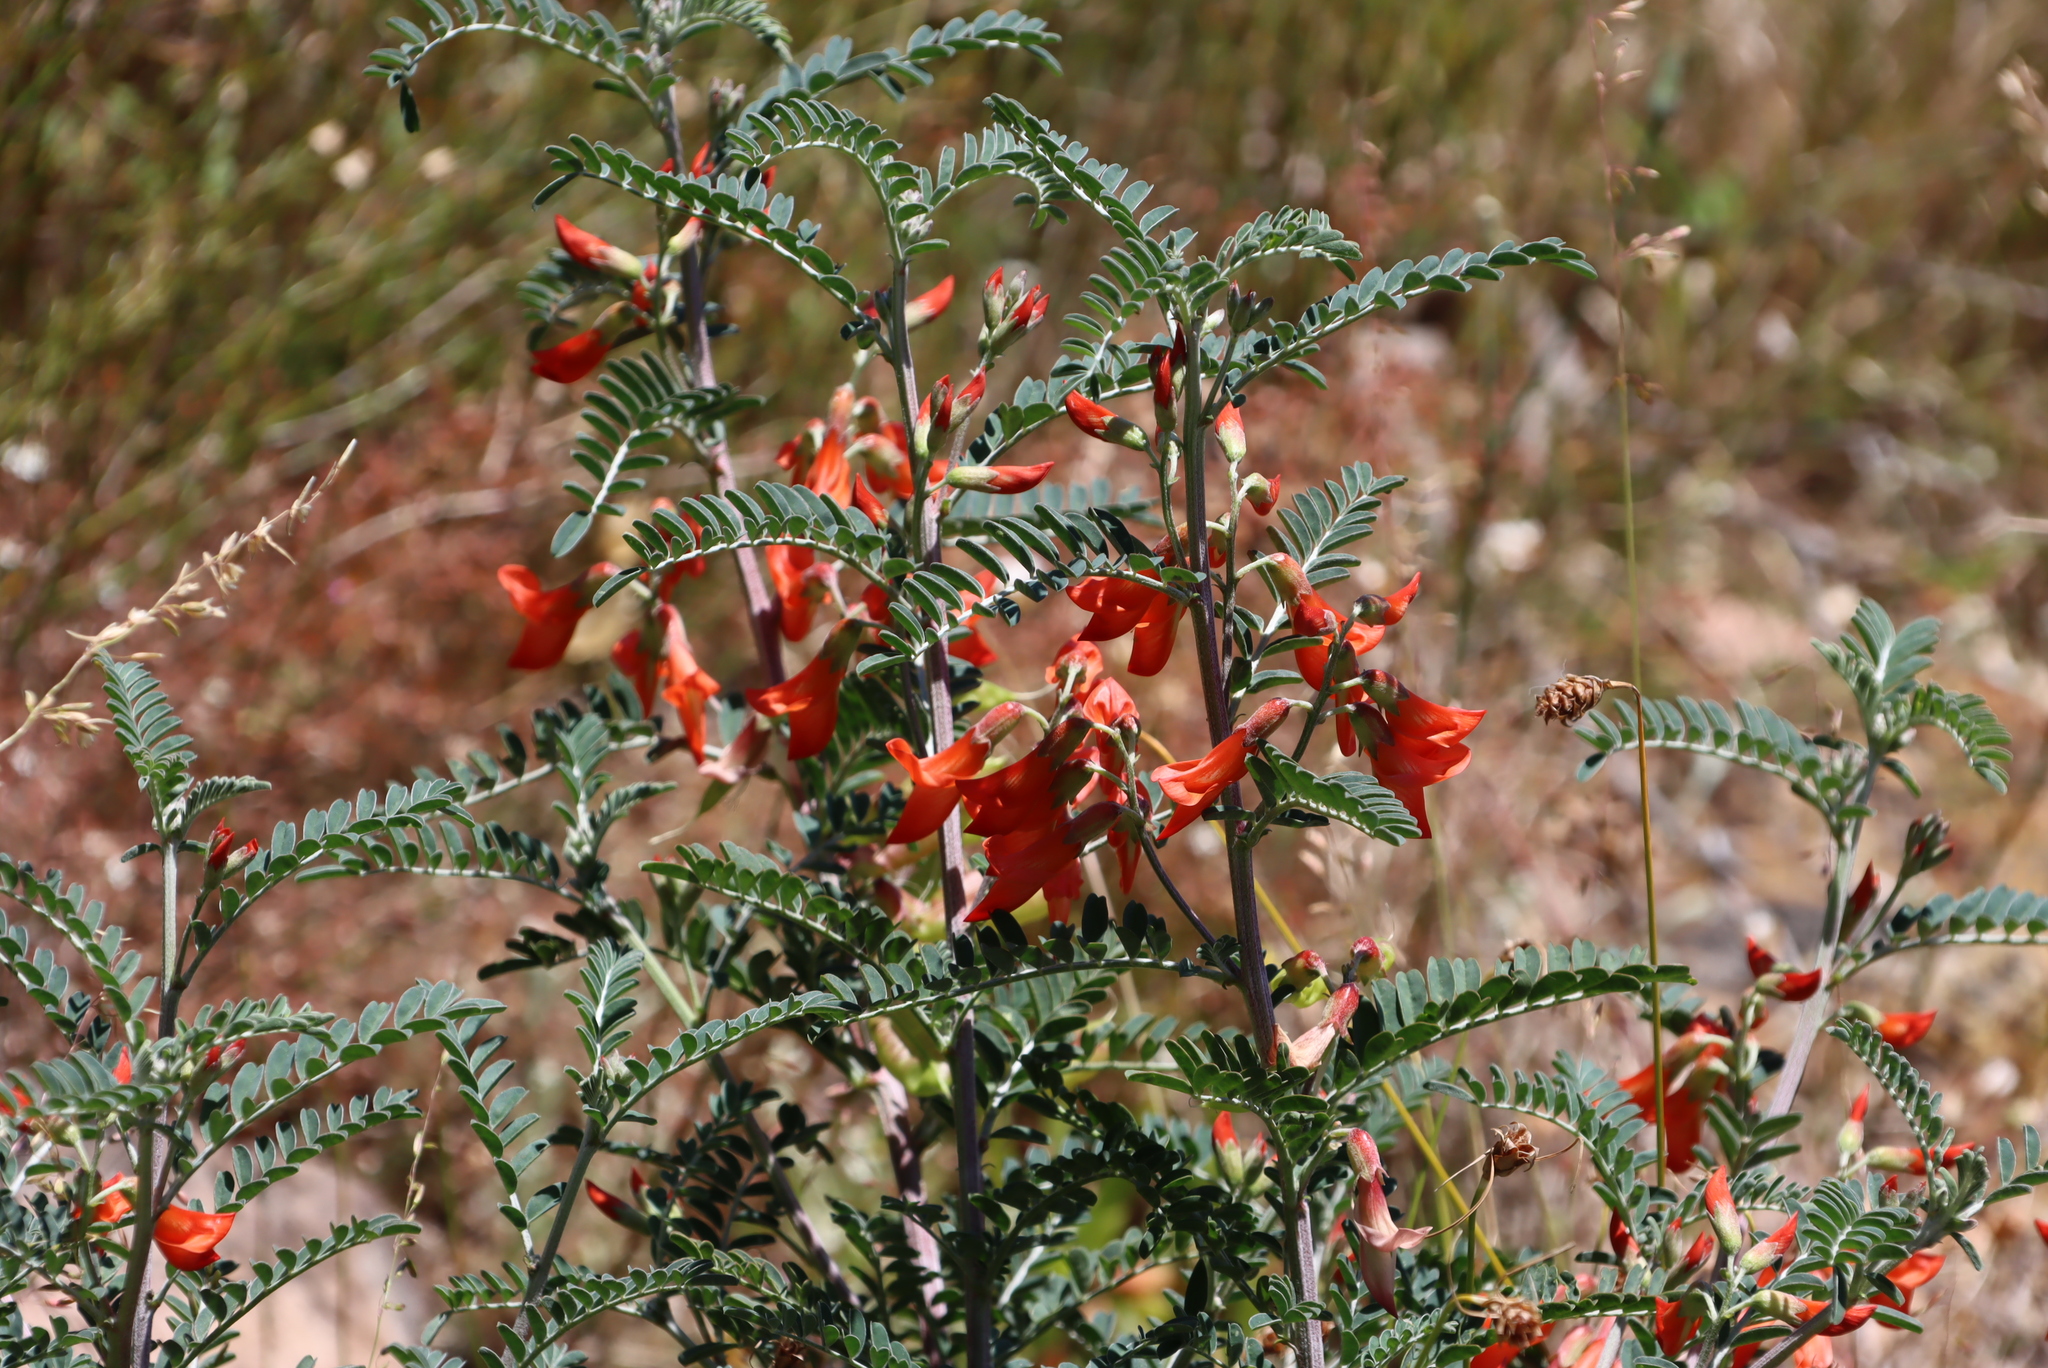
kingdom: Plantae
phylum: Tracheophyta
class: Magnoliopsida
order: Fabales
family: Fabaceae
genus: Lessertia
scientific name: Lessertia frutescens
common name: Balloon-pea
